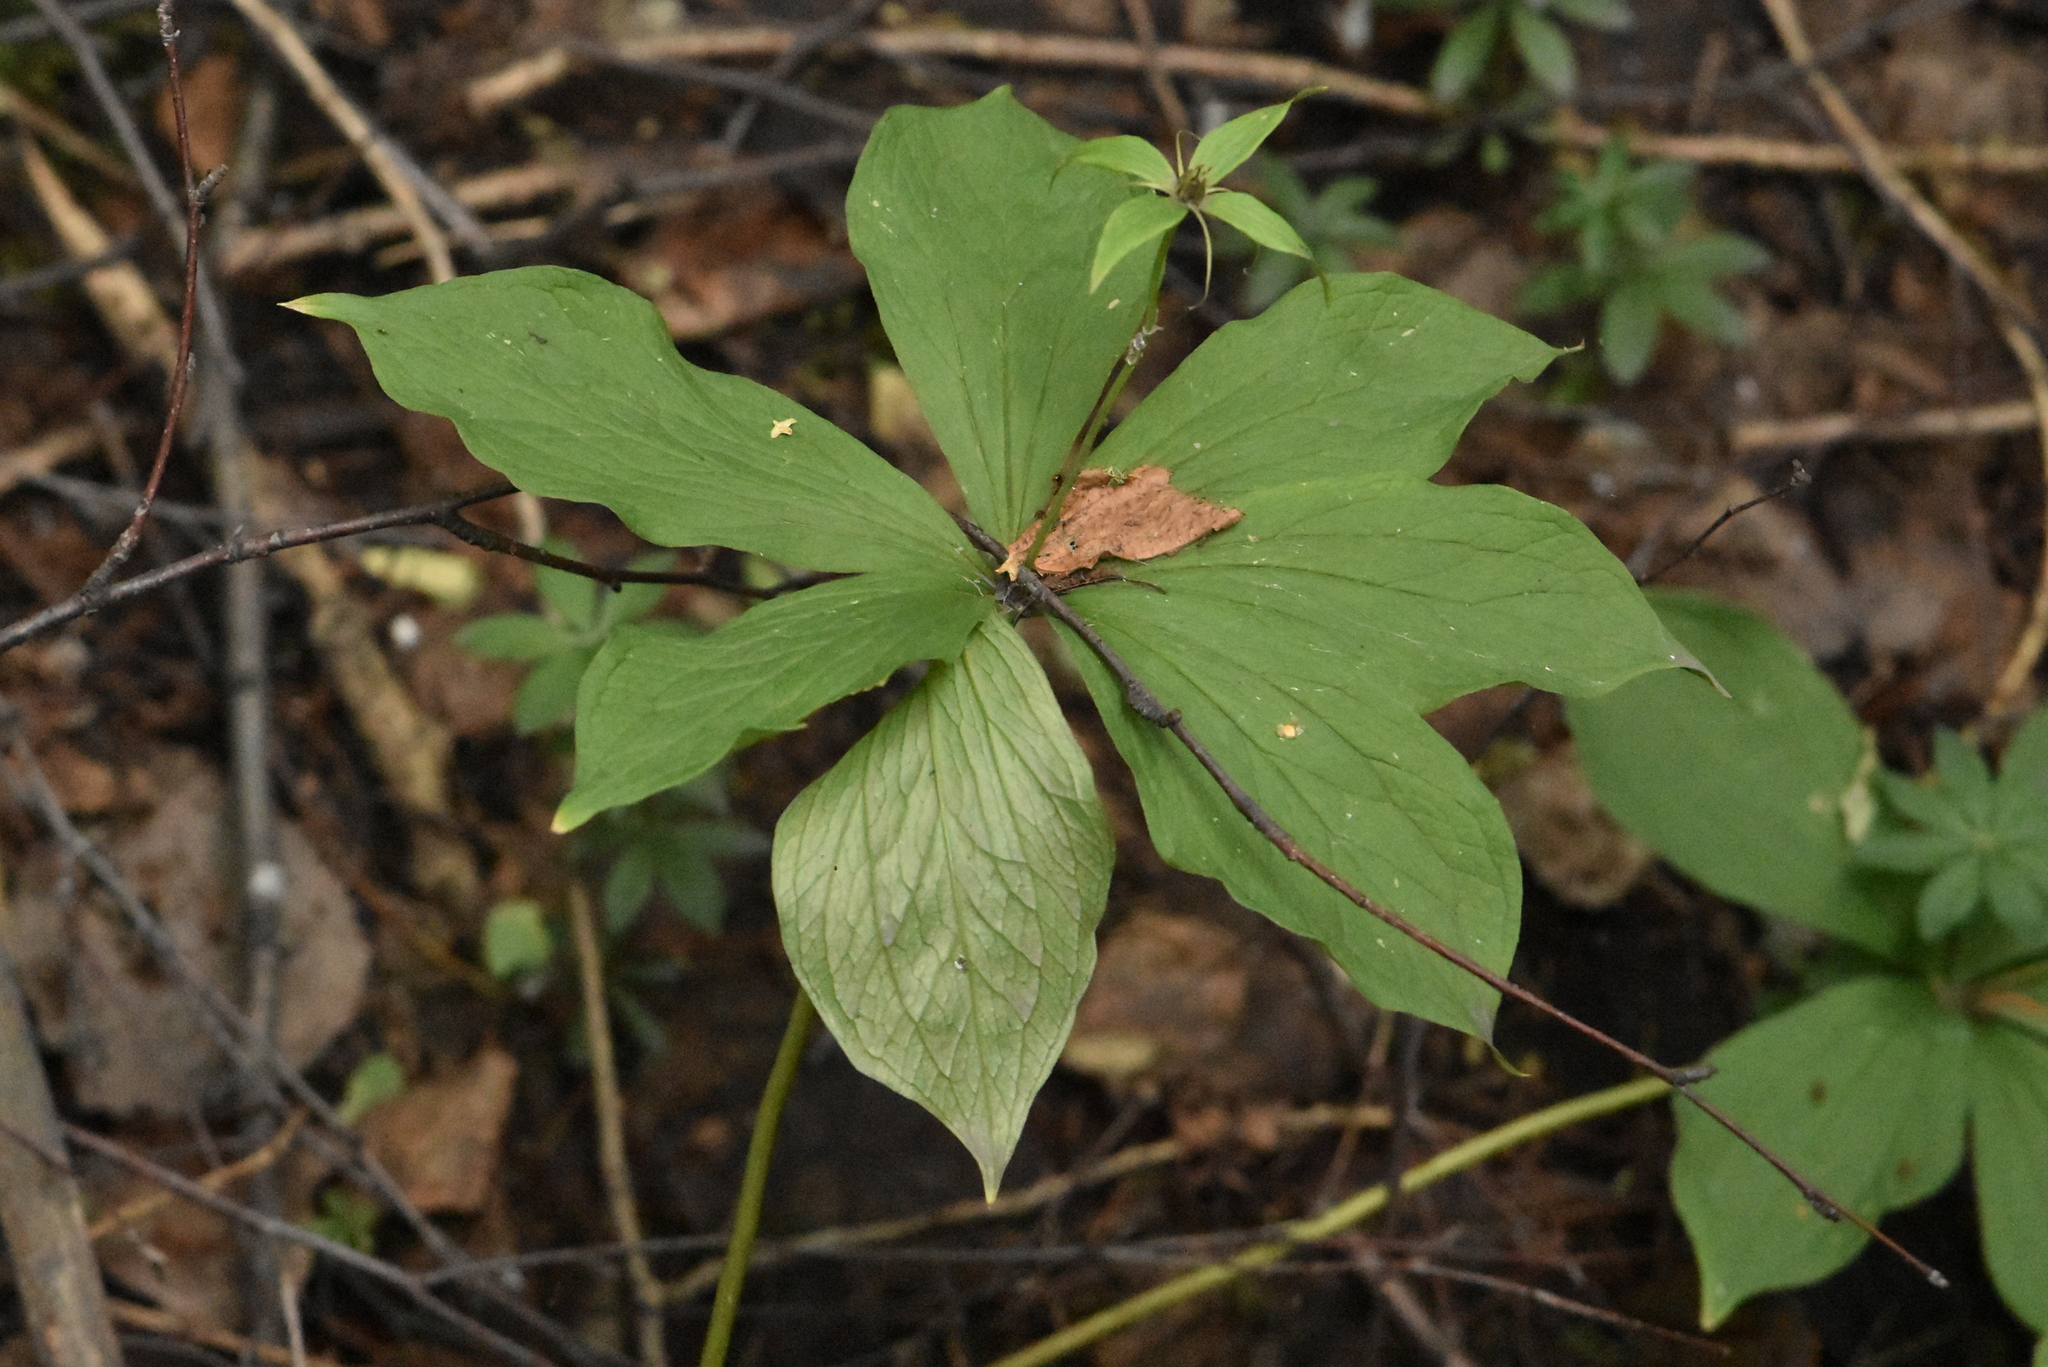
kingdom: Plantae
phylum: Tracheophyta
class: Liliopsida
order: Liliales
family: Melanthiaceae
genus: Paris
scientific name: Paris verticillata
